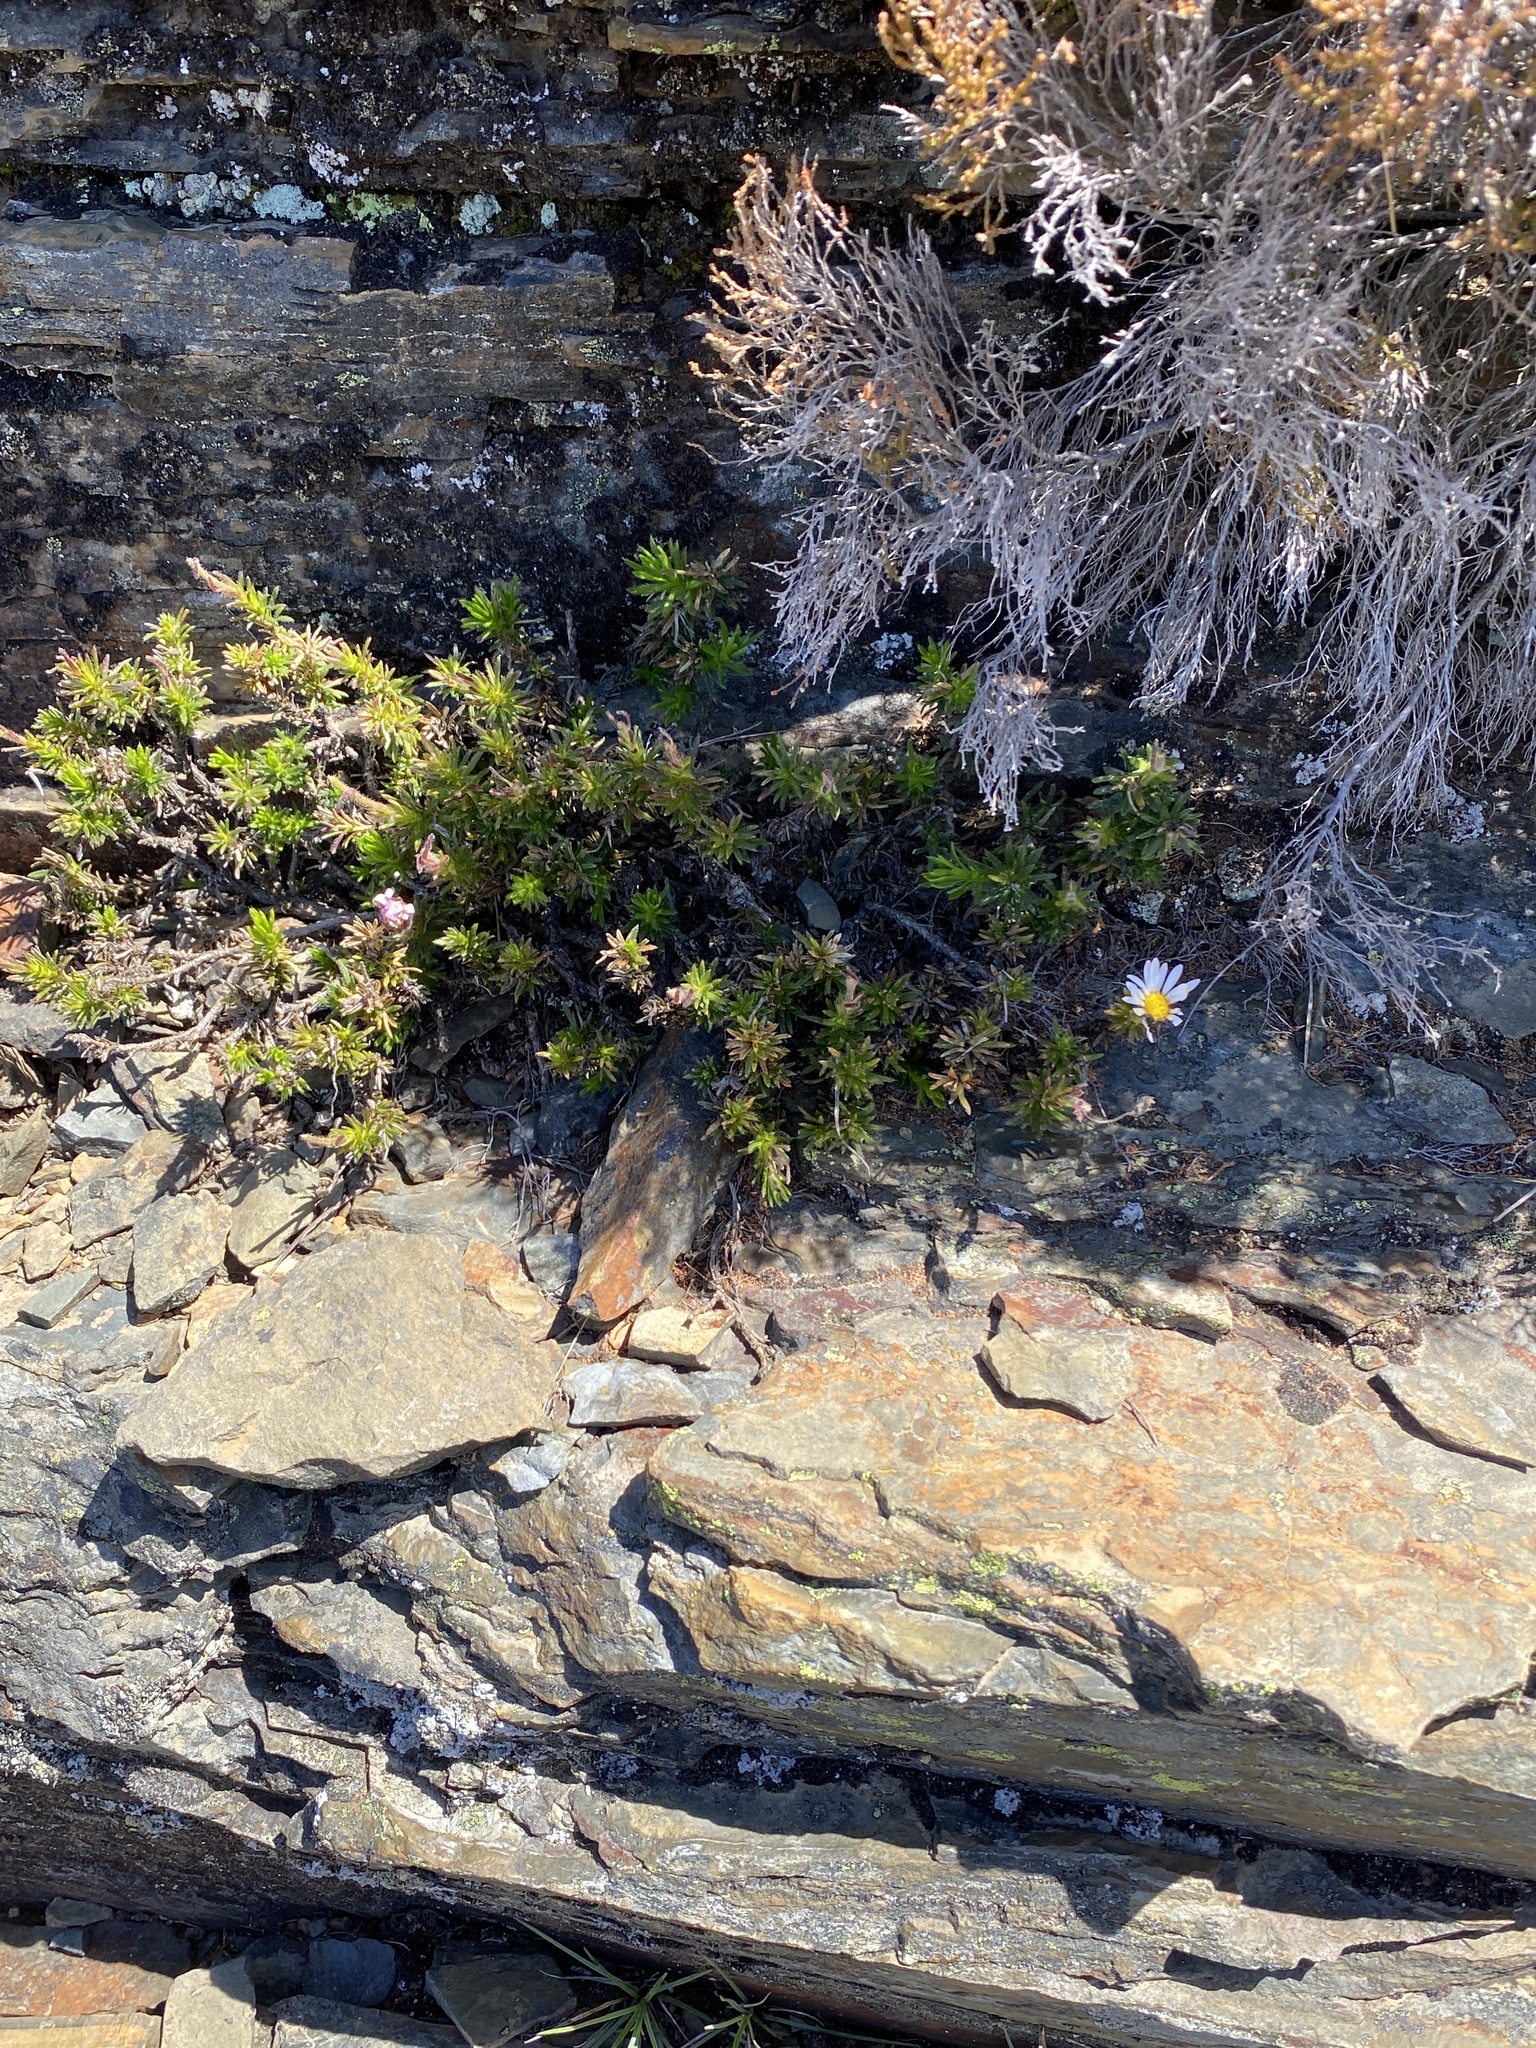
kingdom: Plantae
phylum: Tracheophyta
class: Magnoliopsida
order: Asterales
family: Asteraceae
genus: Polyarrhena
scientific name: Polyarrhena imbricata
